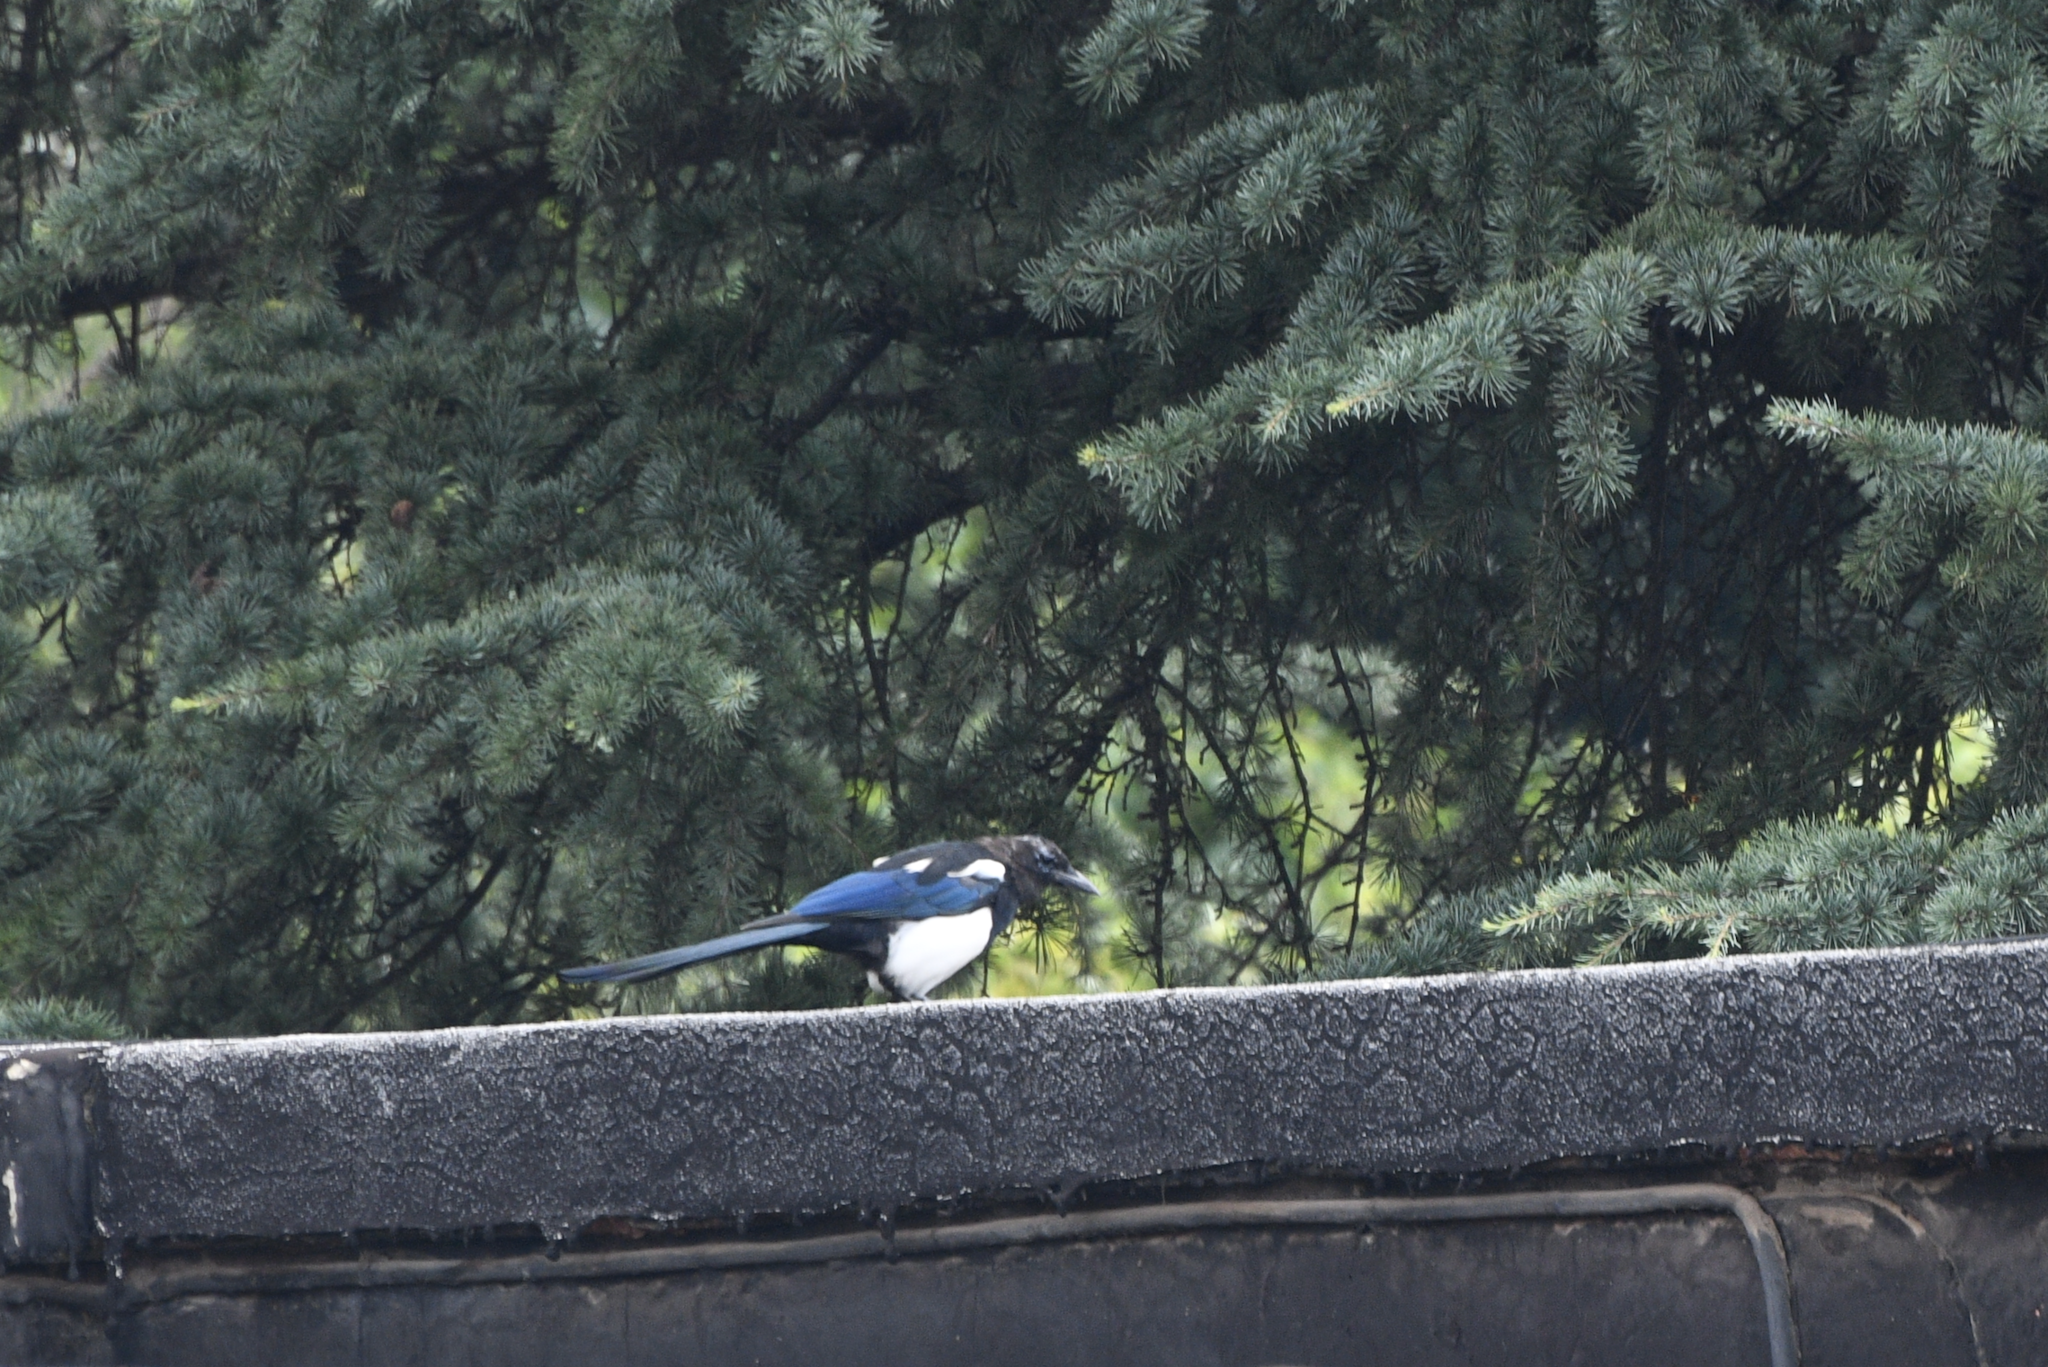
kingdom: Animalia
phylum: Chordata
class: Aves
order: Passeriformes
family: Corvidae
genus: Pica
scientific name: Pica serica
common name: Oriental magpie
